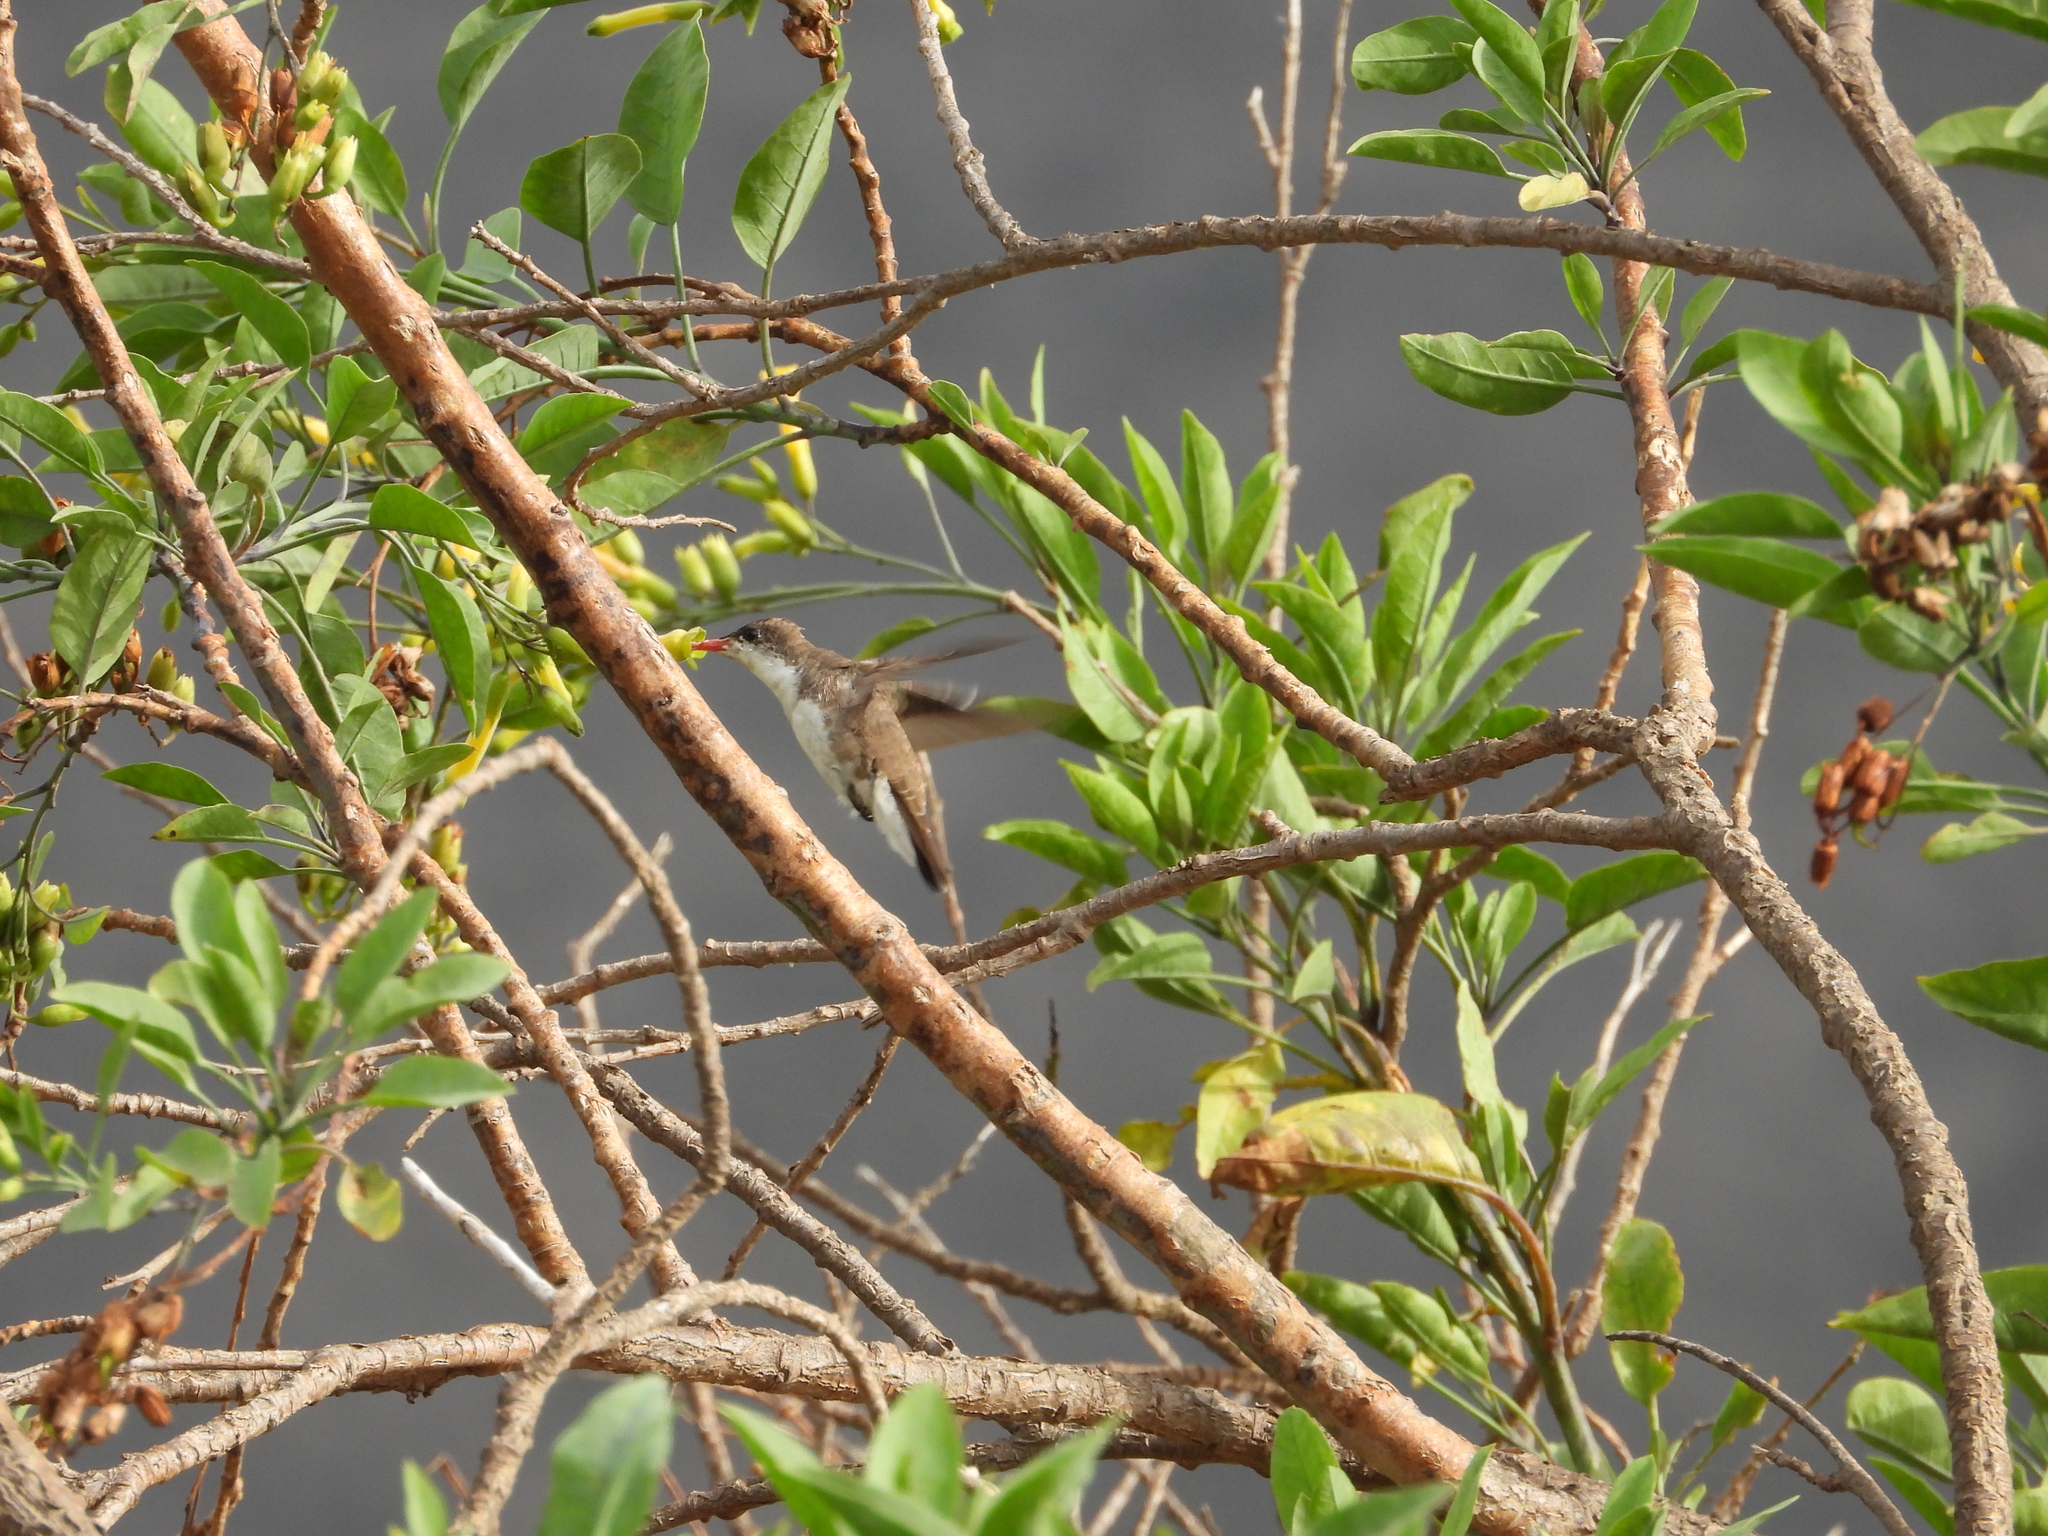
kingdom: Animalia
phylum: Chordata
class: Aves
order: Apodiformes
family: Trochilidae
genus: Leucolia
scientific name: Leucolia violiceps
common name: Violet-crowned hummingbird
